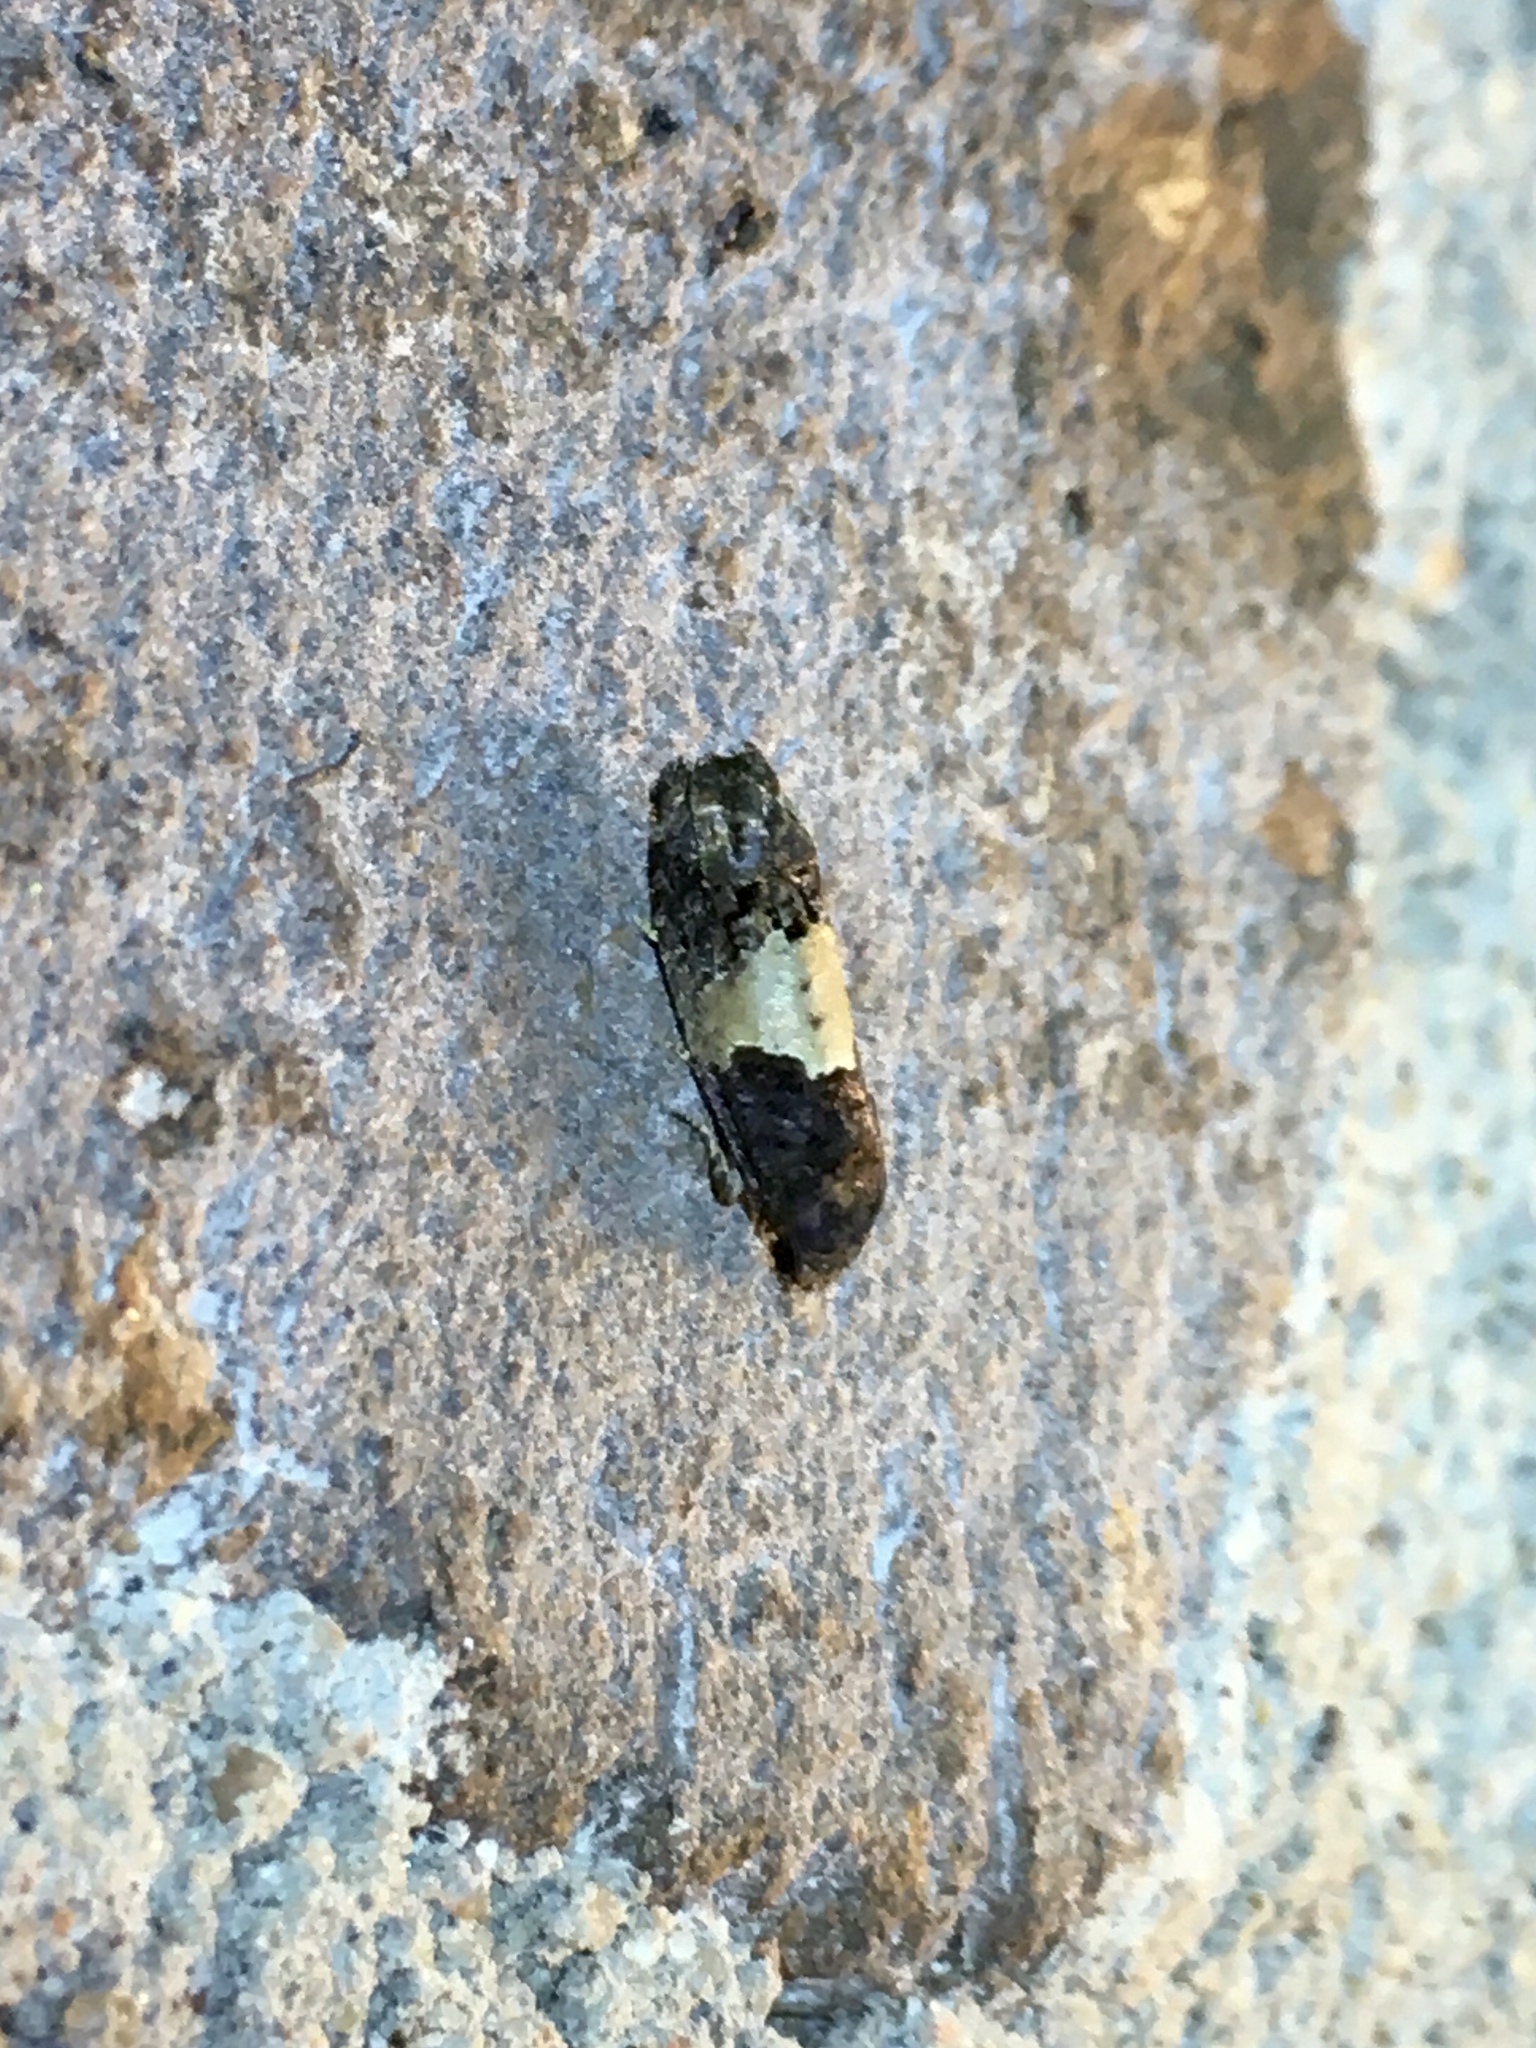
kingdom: Animalia
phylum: Arthropoda
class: Insecta
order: Lepidoptera
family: Tortricidae
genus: Epiblema
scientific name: Epiblema glenni
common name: Glenn's epiblema
